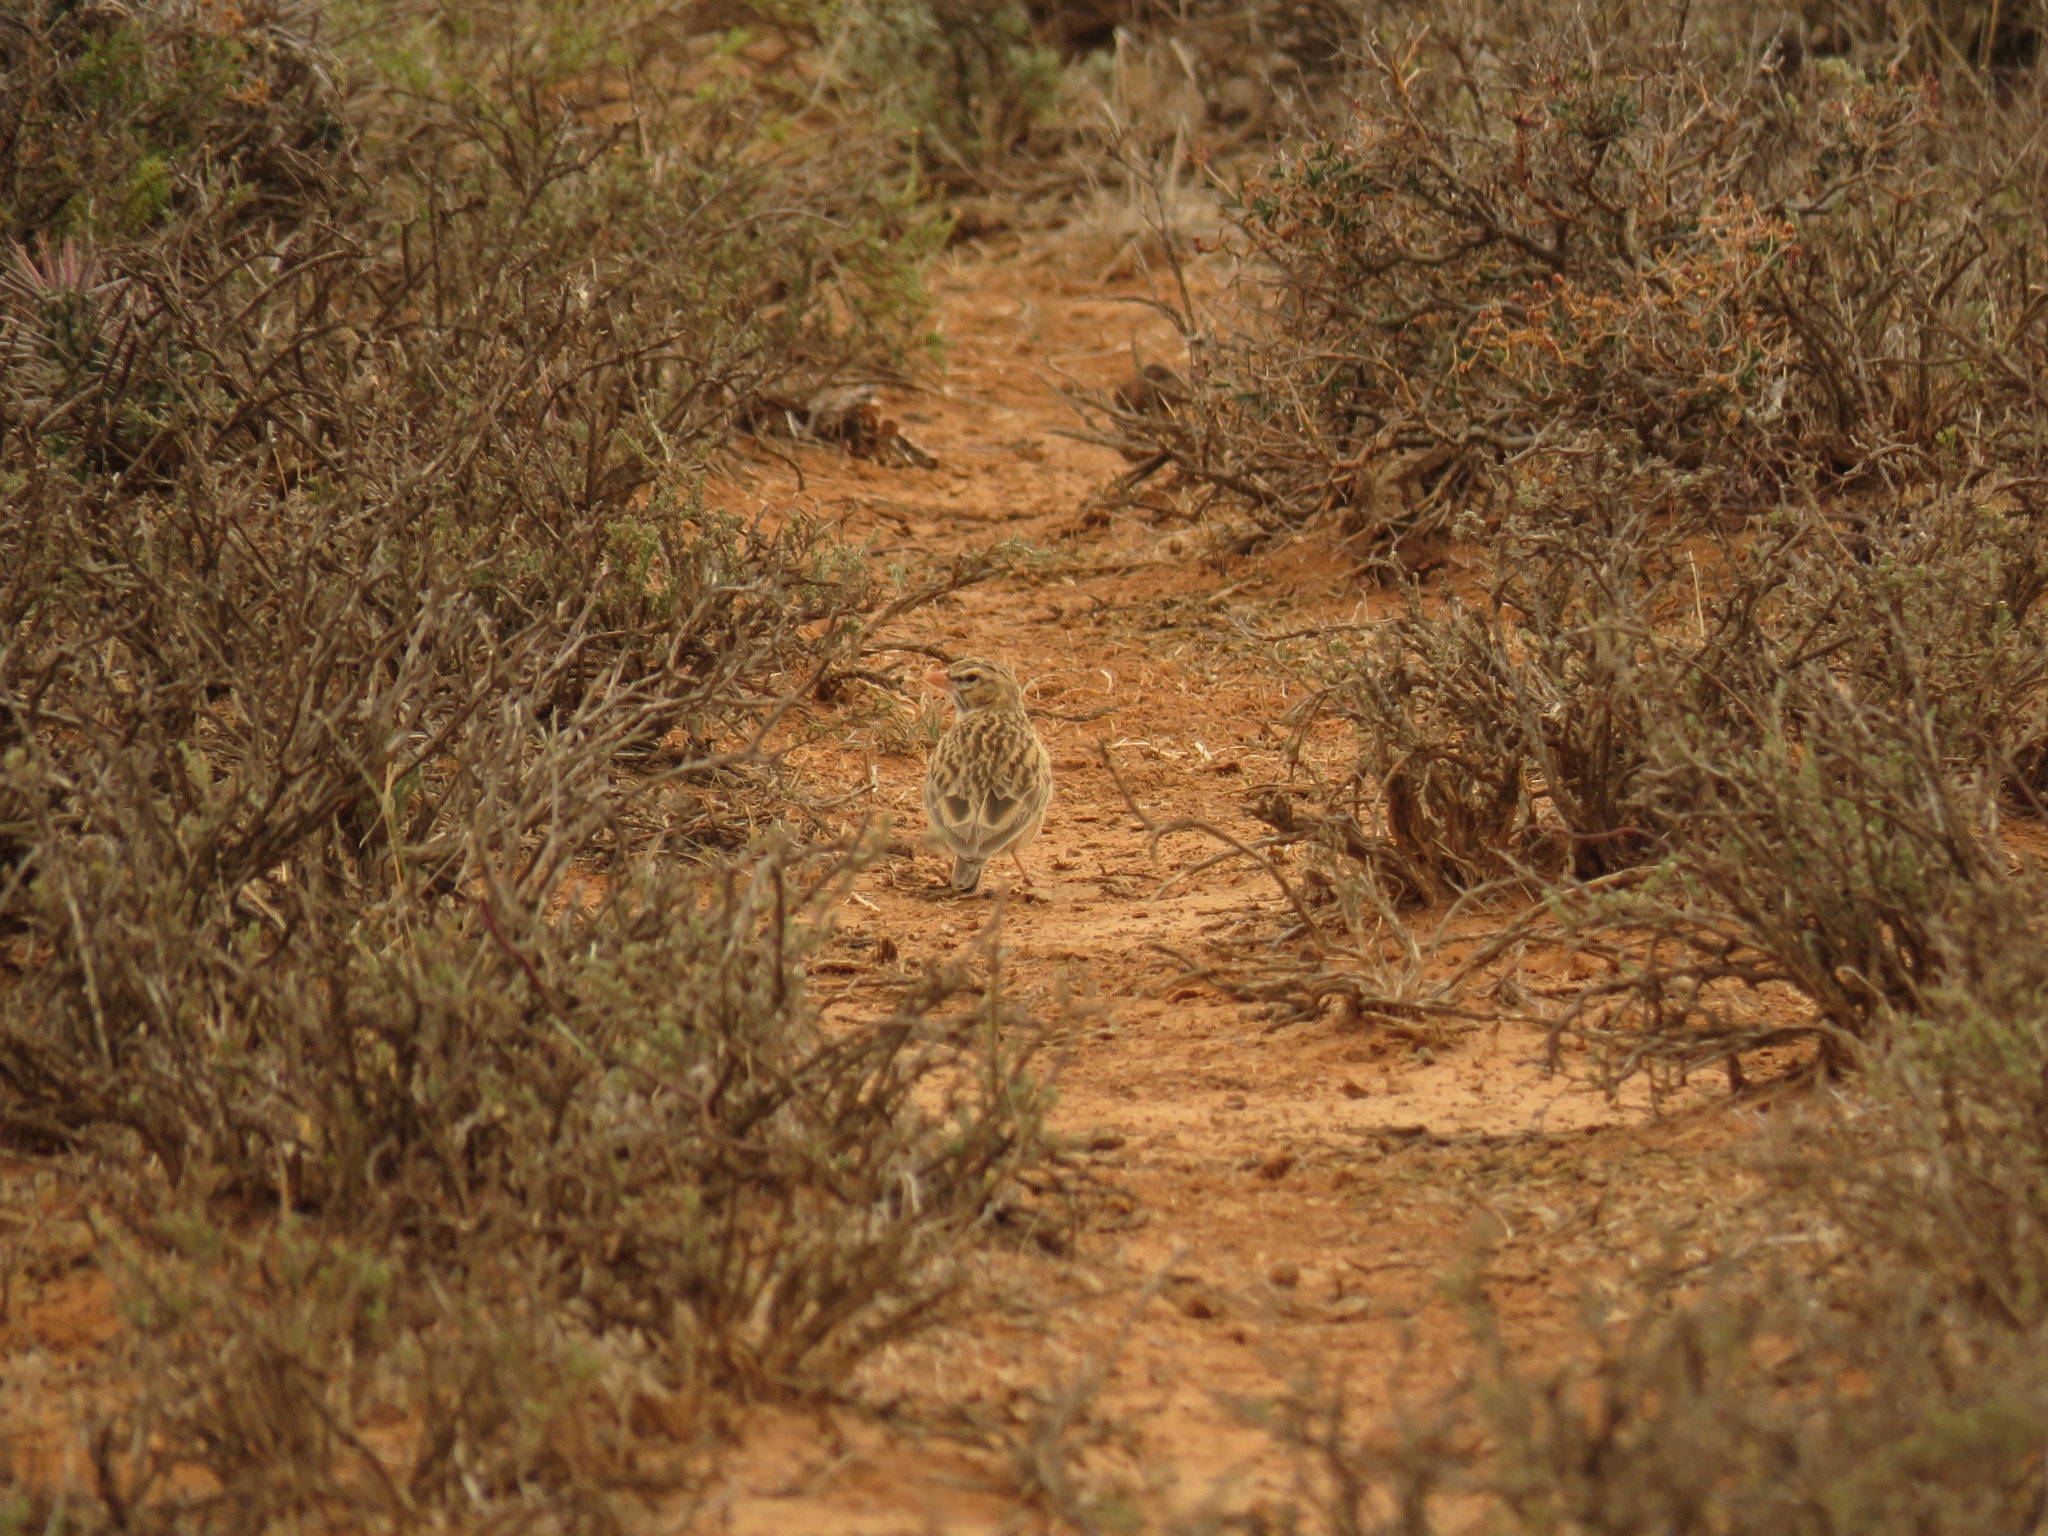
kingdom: Animalia
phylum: Chordata
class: Aves
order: Passeriformes
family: Alaudidae
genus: Spizocorys
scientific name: Spizocorys conirostris
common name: Pink-billed lark
